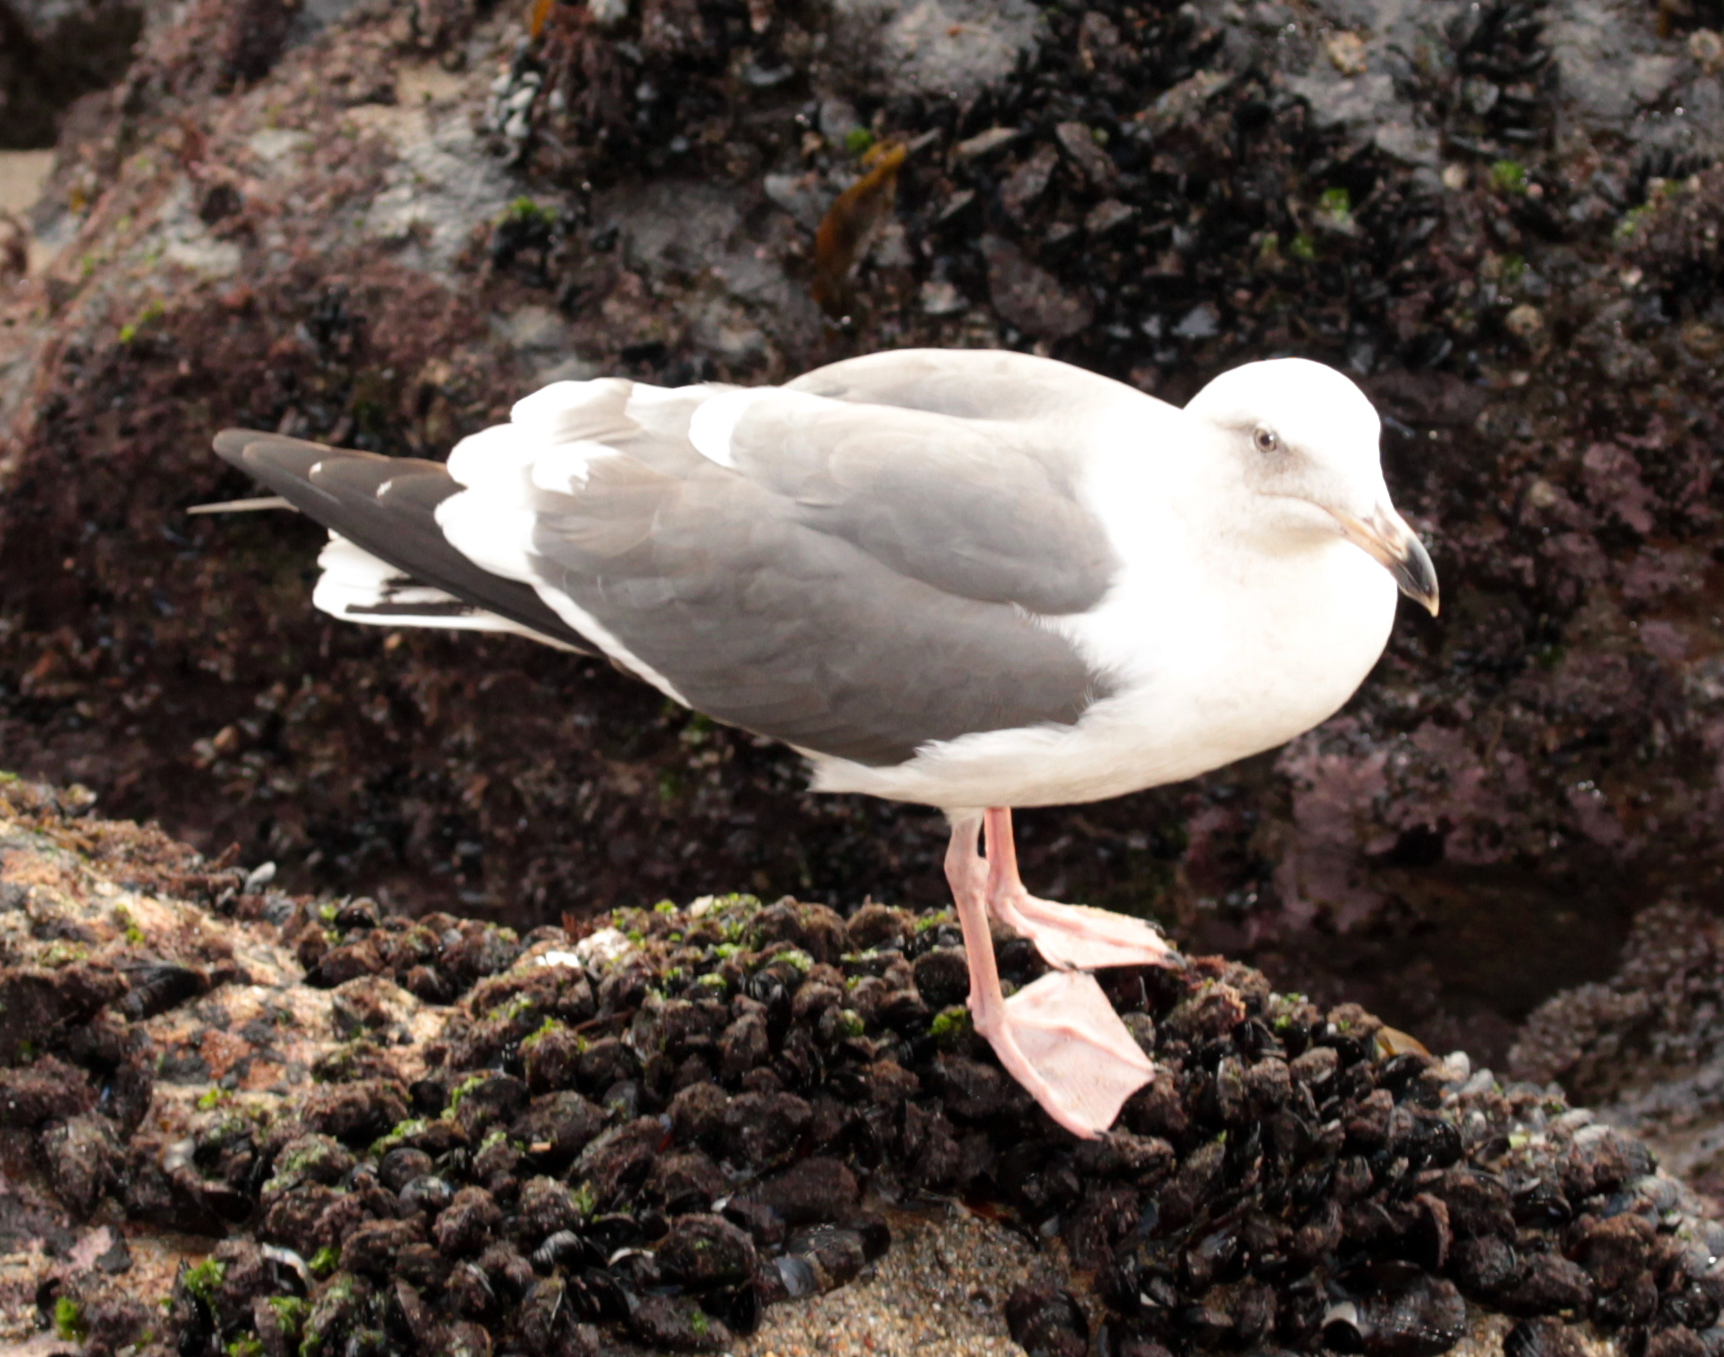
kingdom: Animalia
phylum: Chordata
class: Aves
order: Charadriiformes
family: Laridae
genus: Larus
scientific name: Larus occidentalis
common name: Western gull
